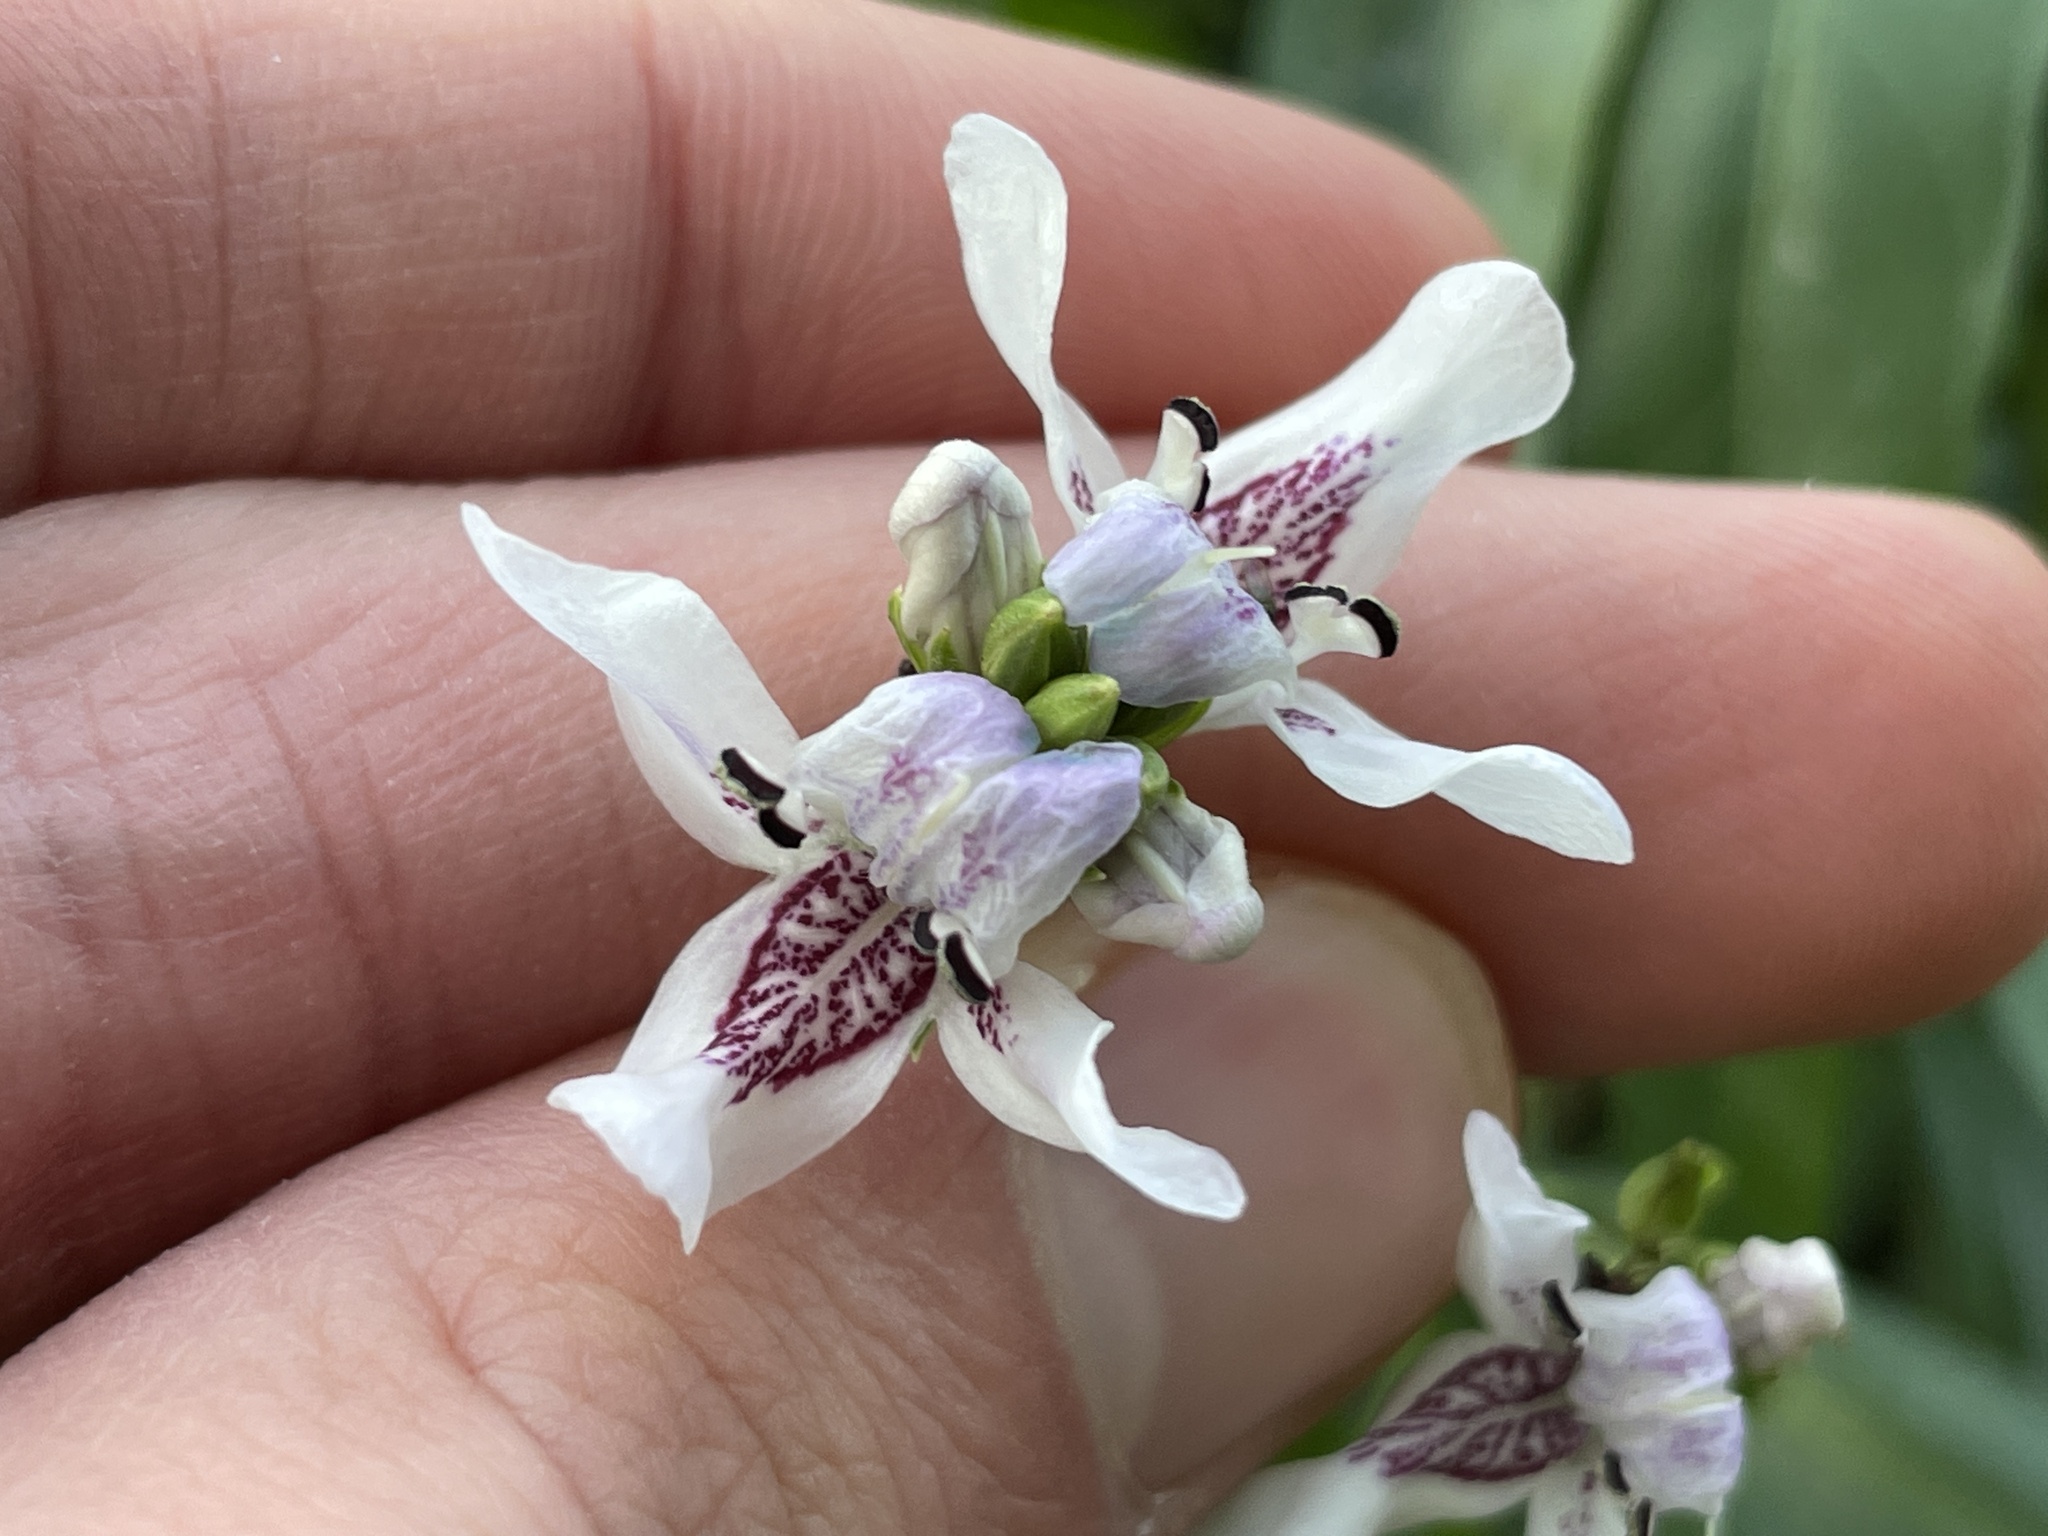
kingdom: Plantae
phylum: Tracheophyta
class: Magnoliopsida
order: Lamiales
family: Acanthaceae
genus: Dianthera
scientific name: Dianthera americana
